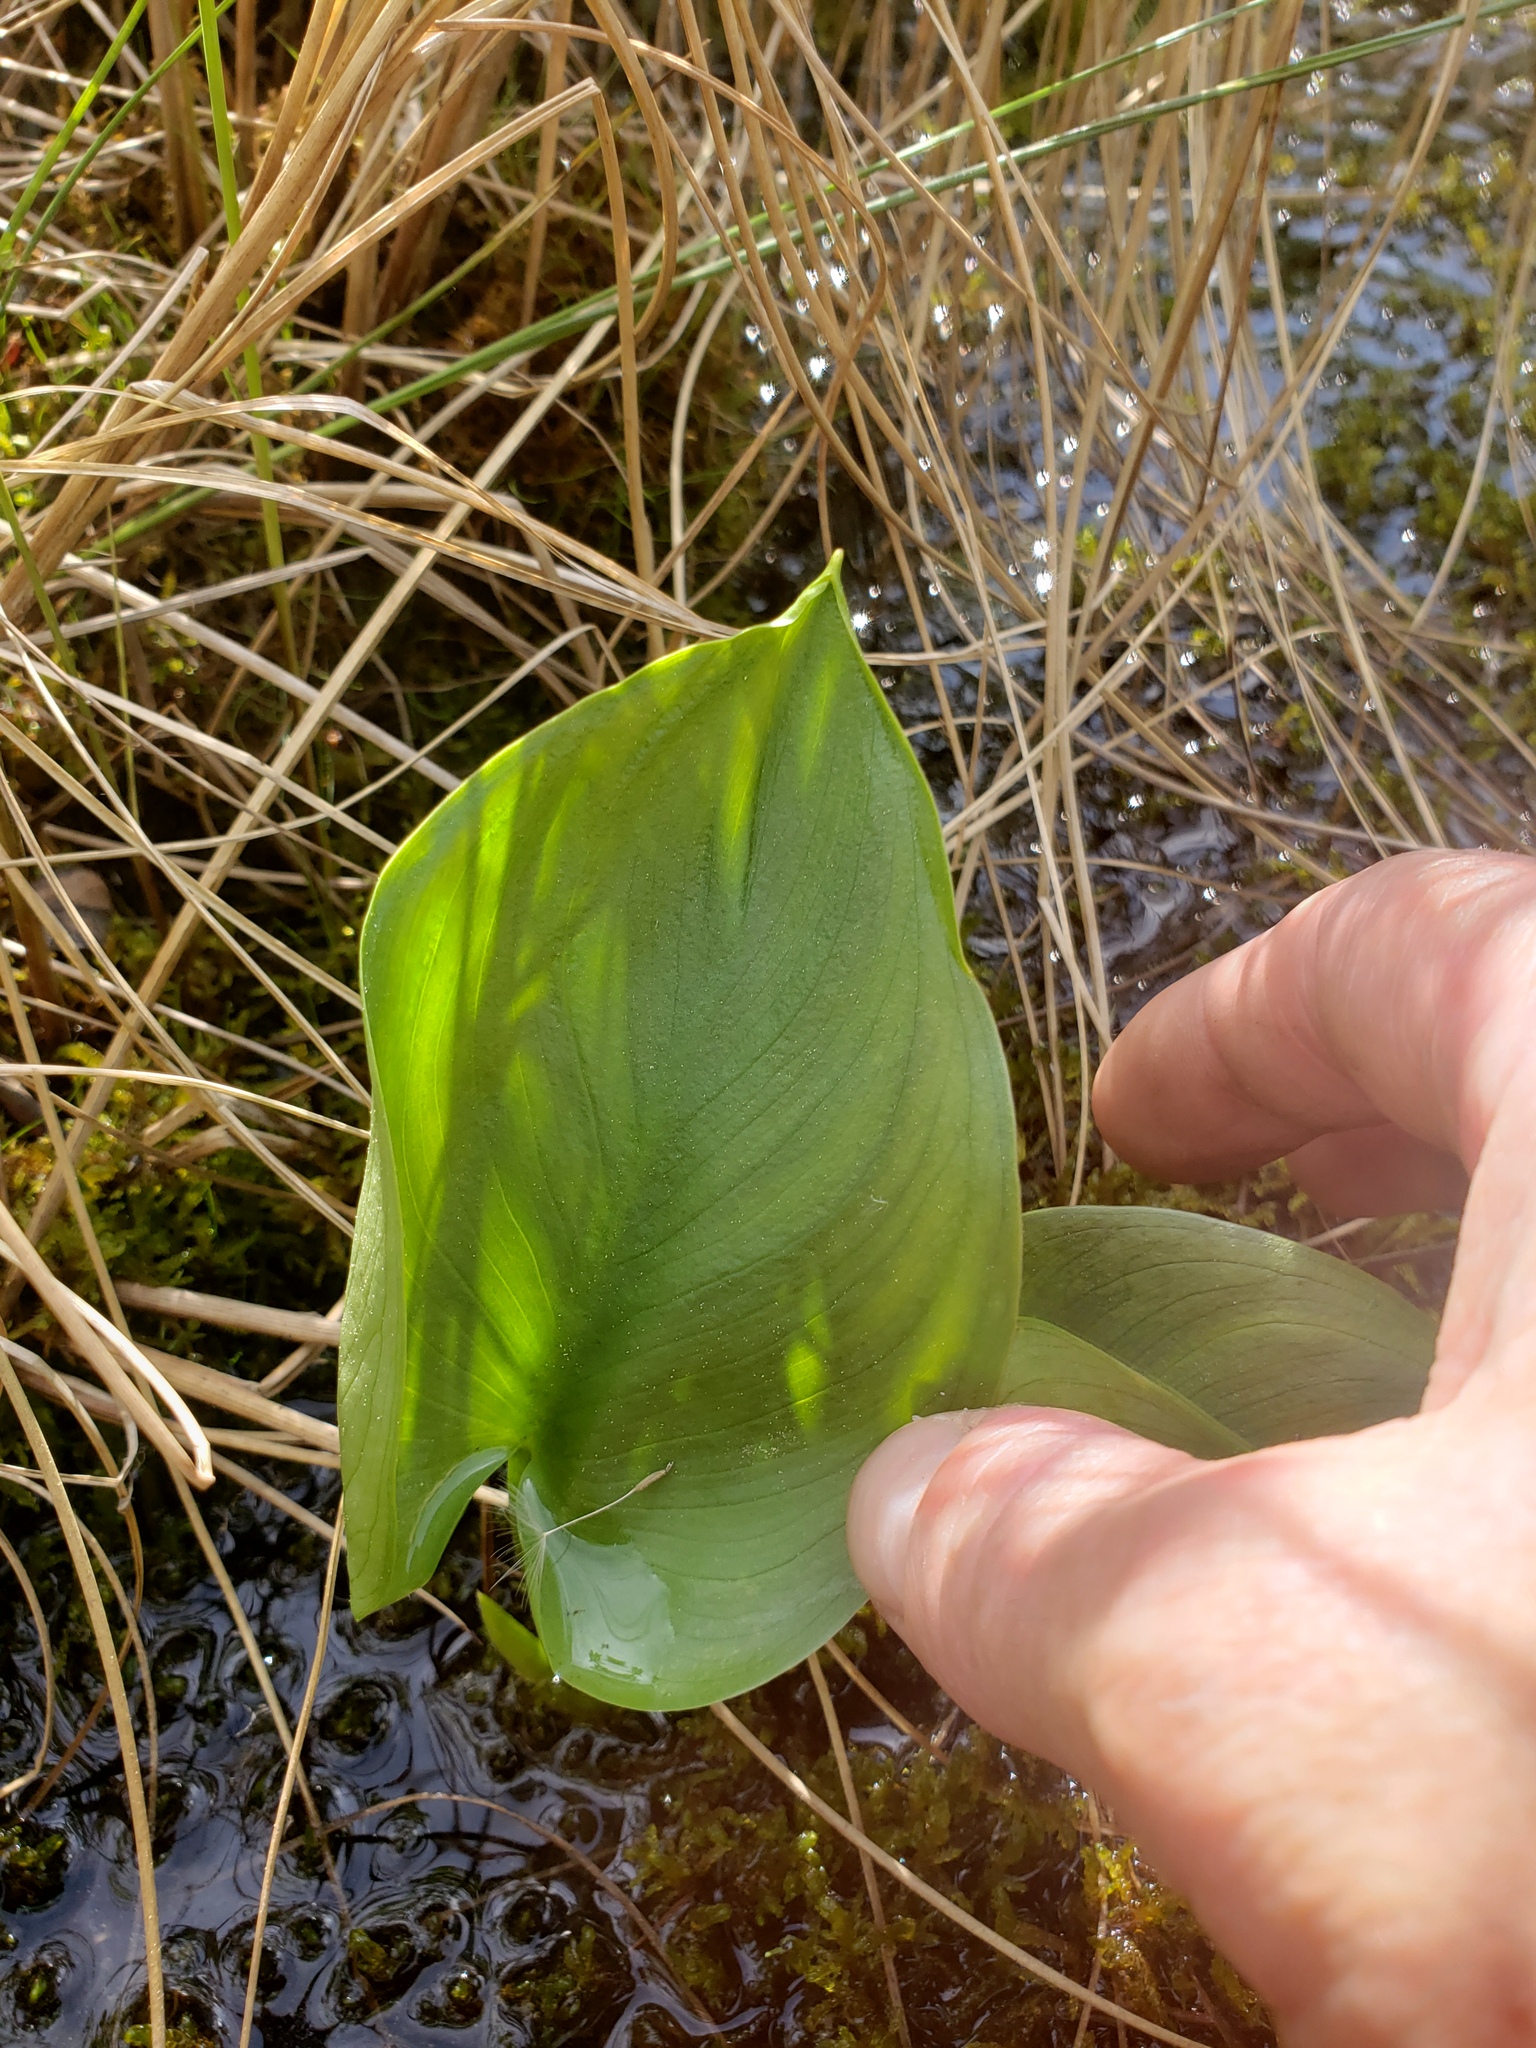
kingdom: Plantae
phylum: Tracheophyta
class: Liliopsida
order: Alismatales
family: Araceae
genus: Calla
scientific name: Calla palustris
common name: Bog arum
